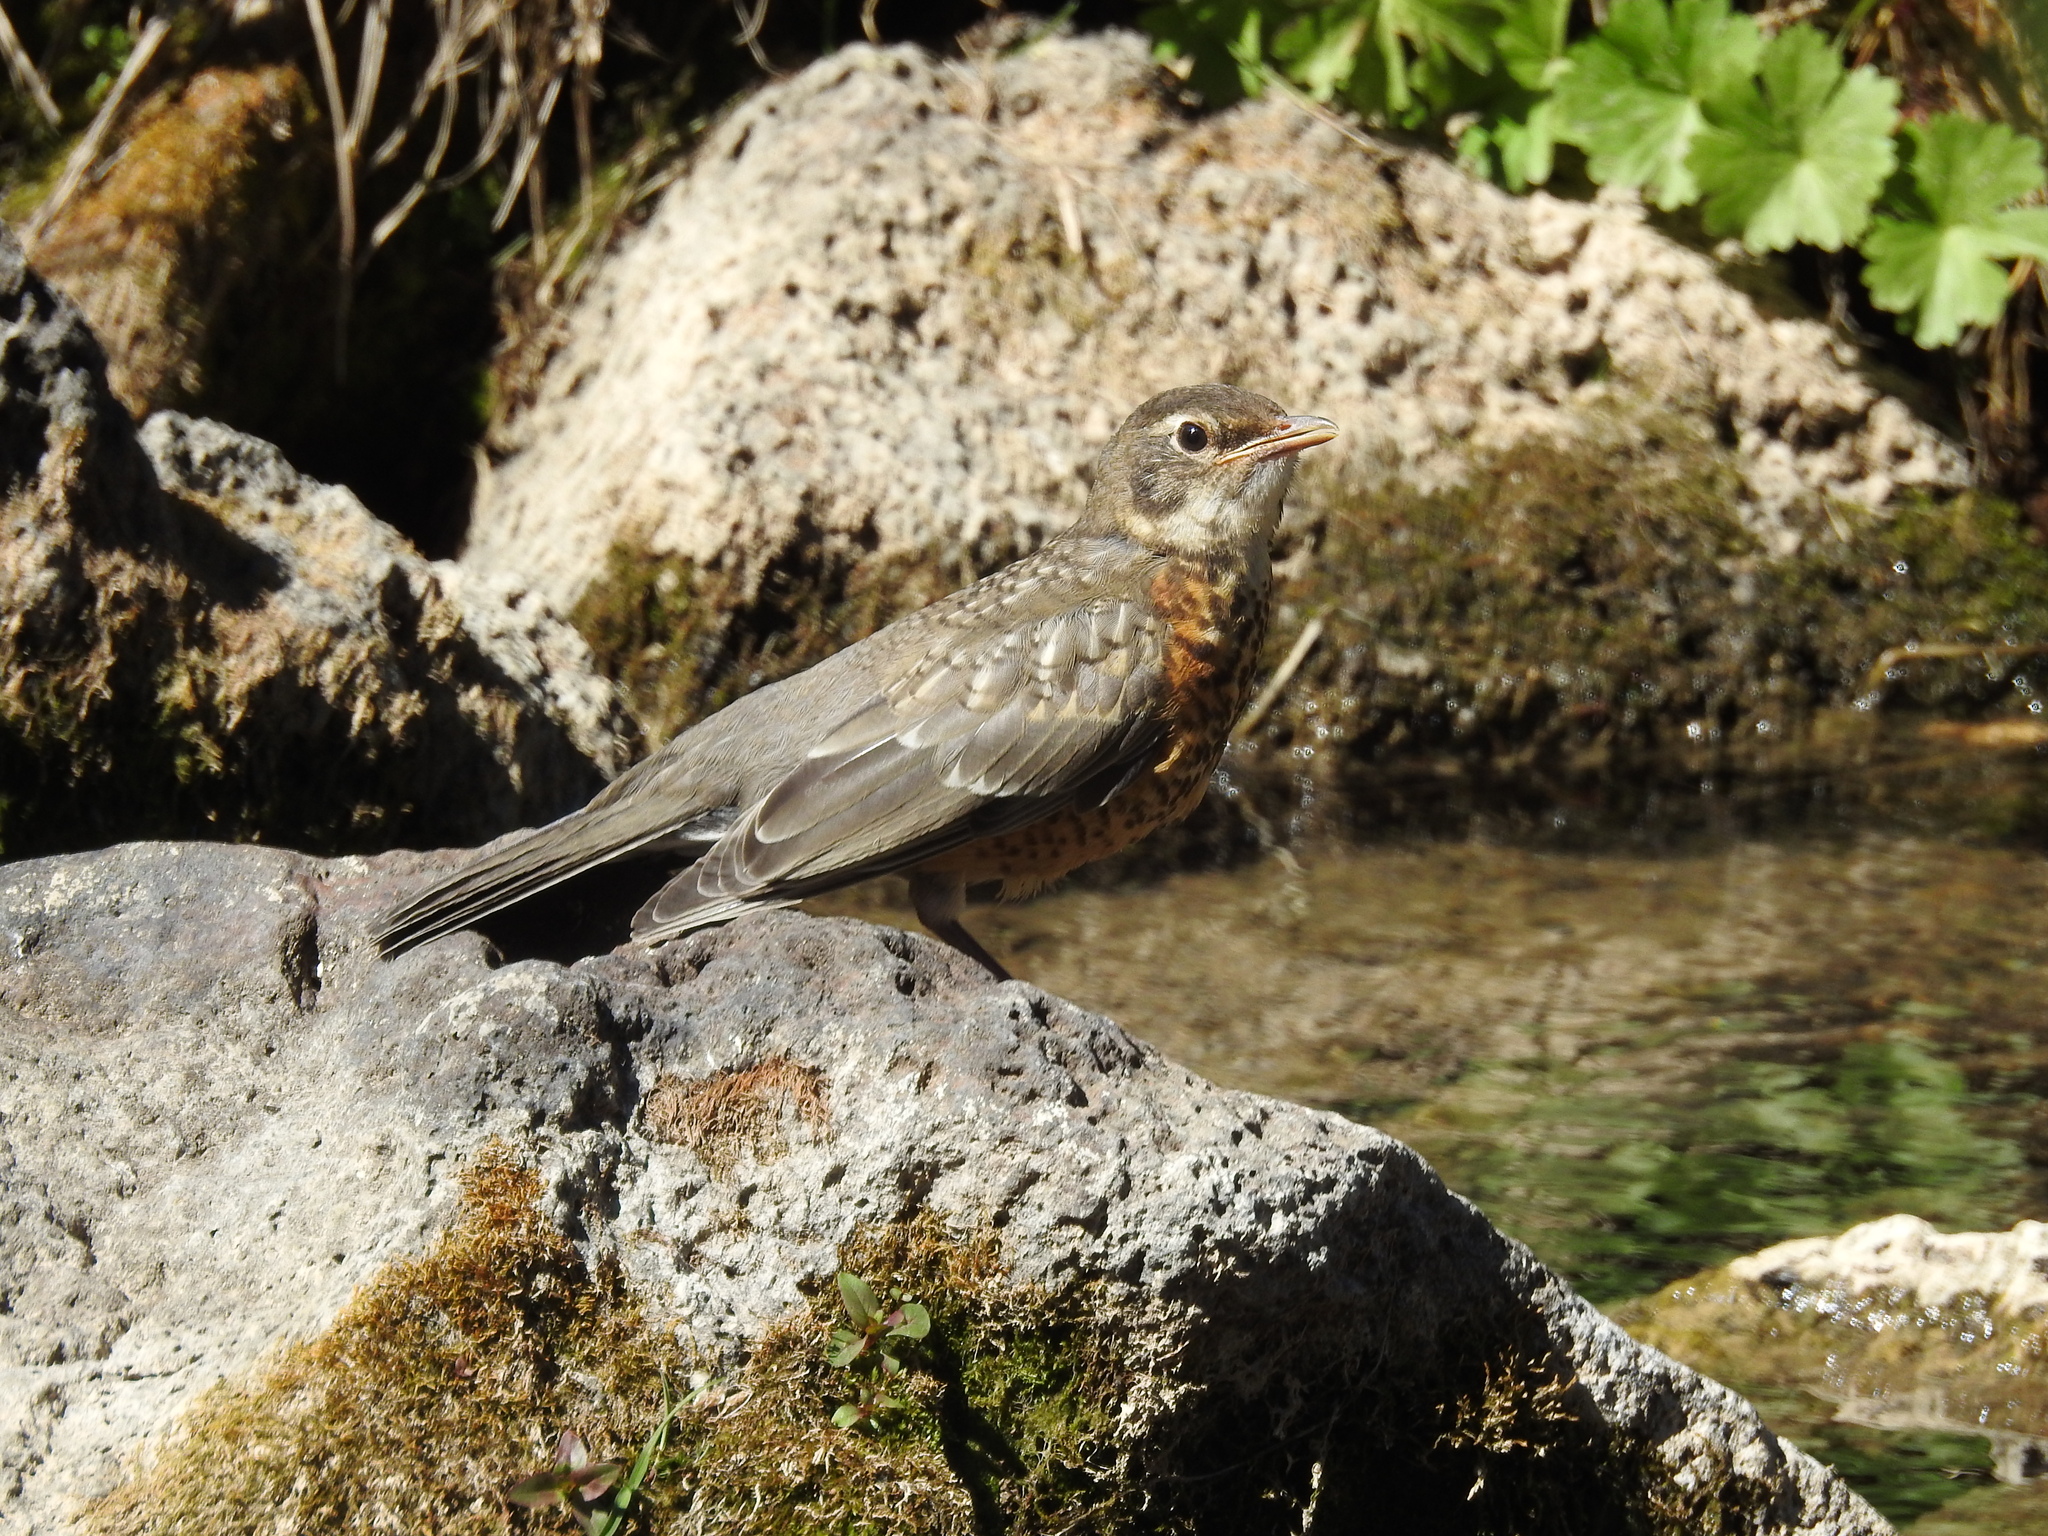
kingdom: Animalia
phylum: Chordata
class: Aves
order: Passeriformes
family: Turdidae
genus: Turdus
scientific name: Turdus migratorius
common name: American robin
